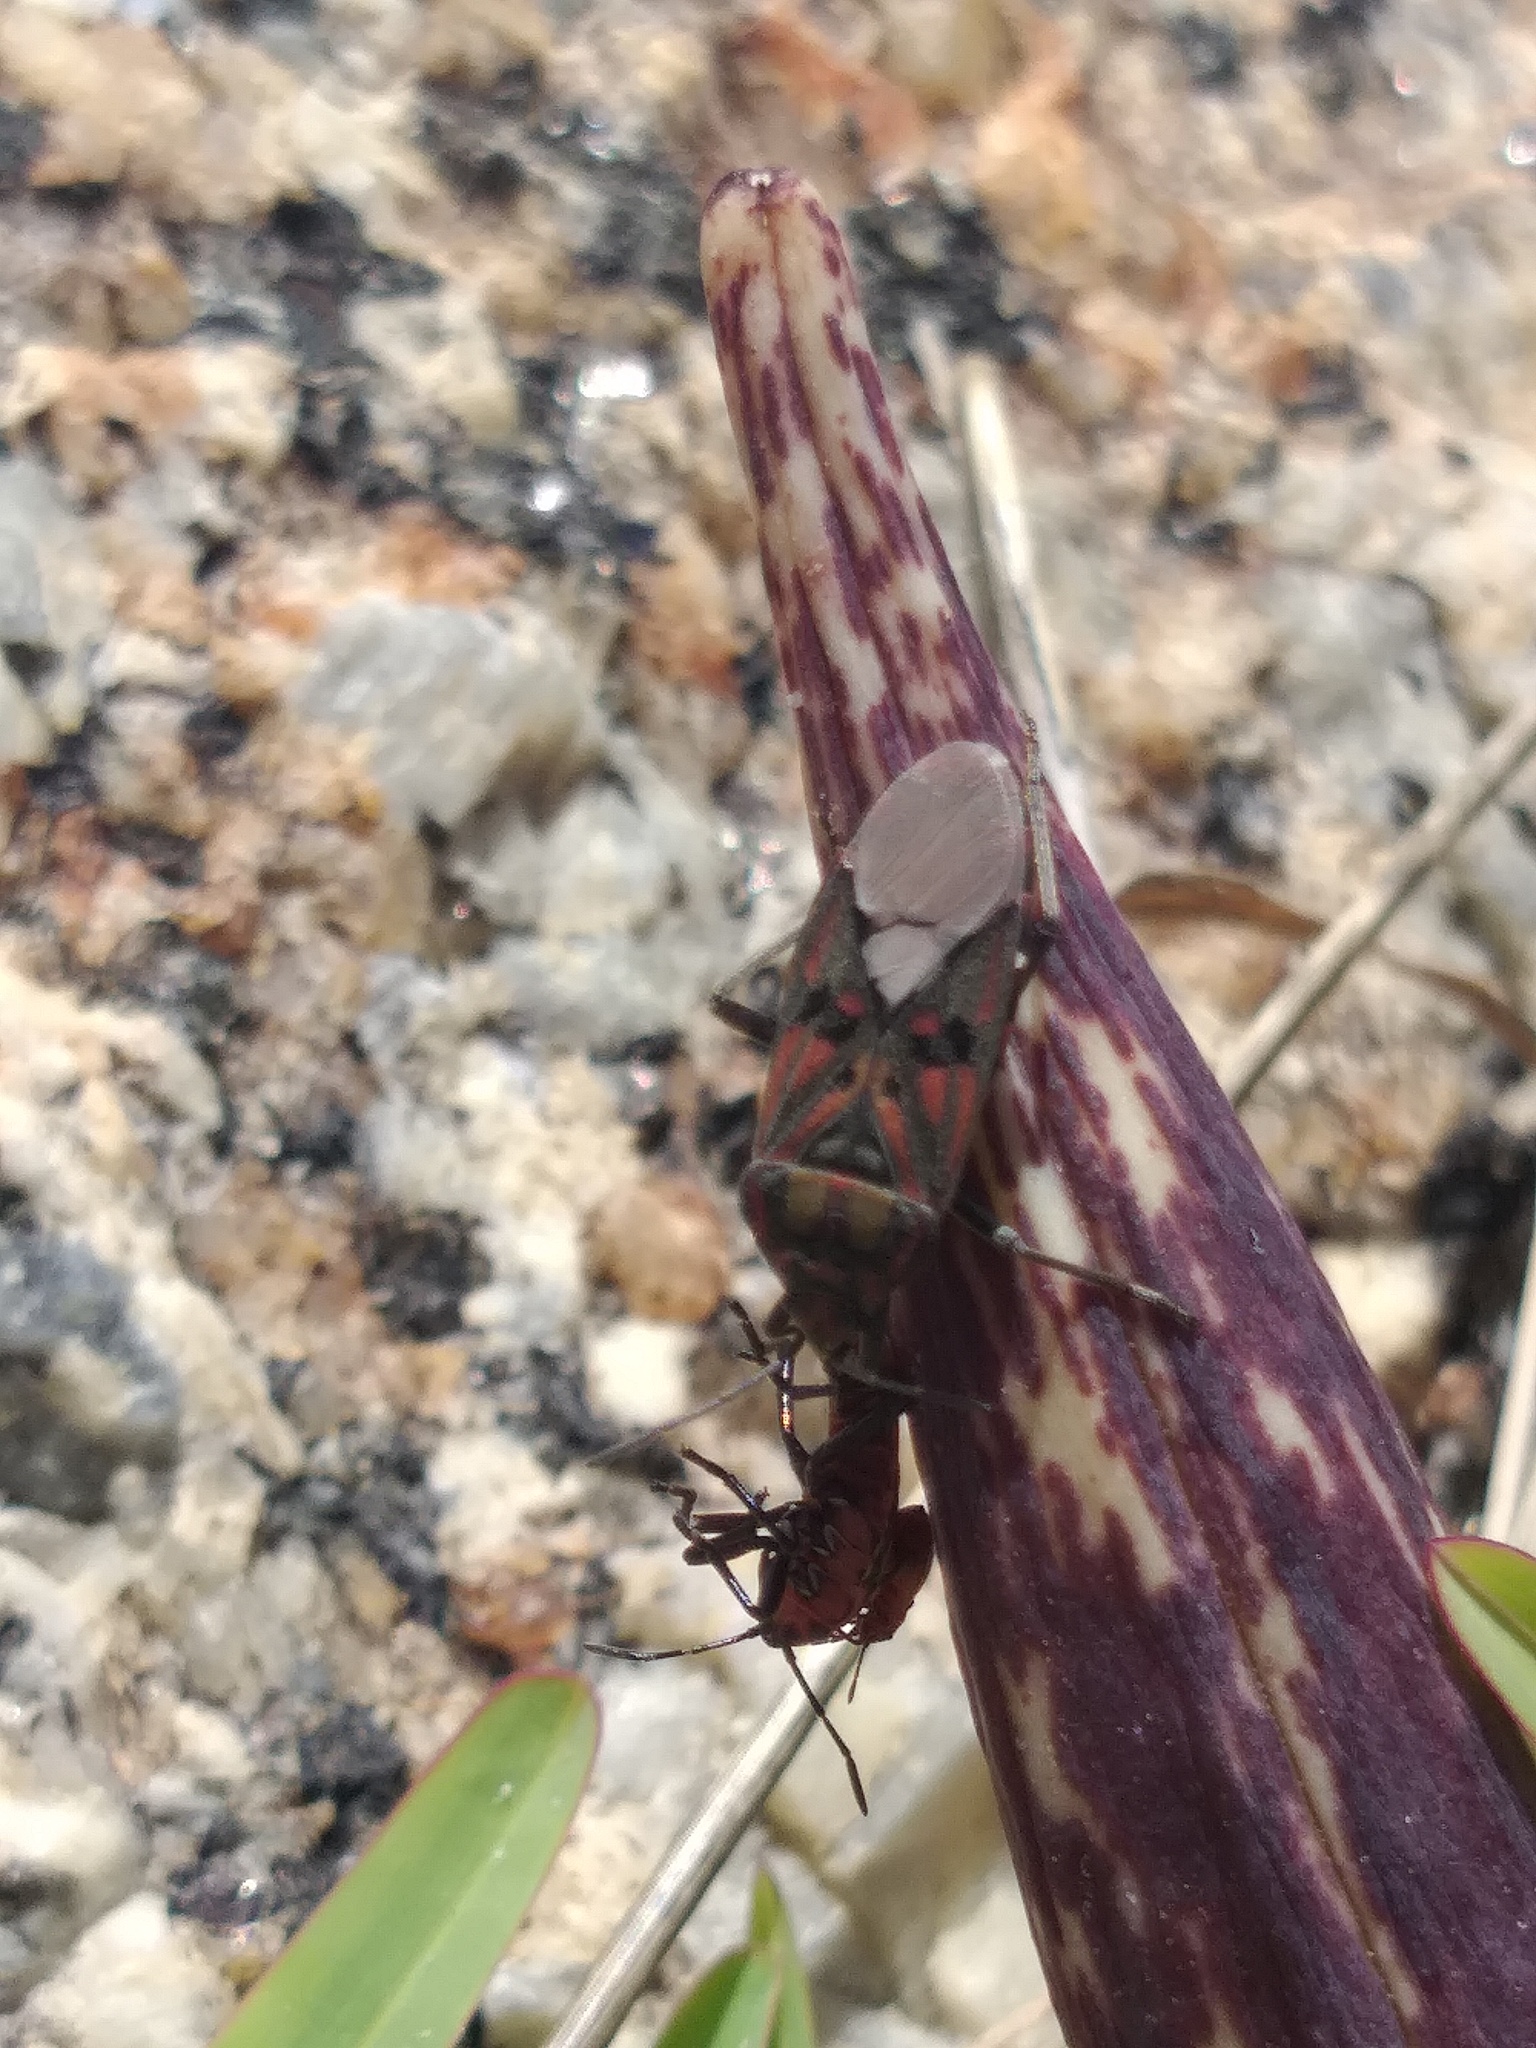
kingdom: Animalia
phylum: Arthropoda
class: Insecta
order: Hemiptera
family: Lygaeidae
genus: Spilostethus
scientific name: Spilostethus pandurus
